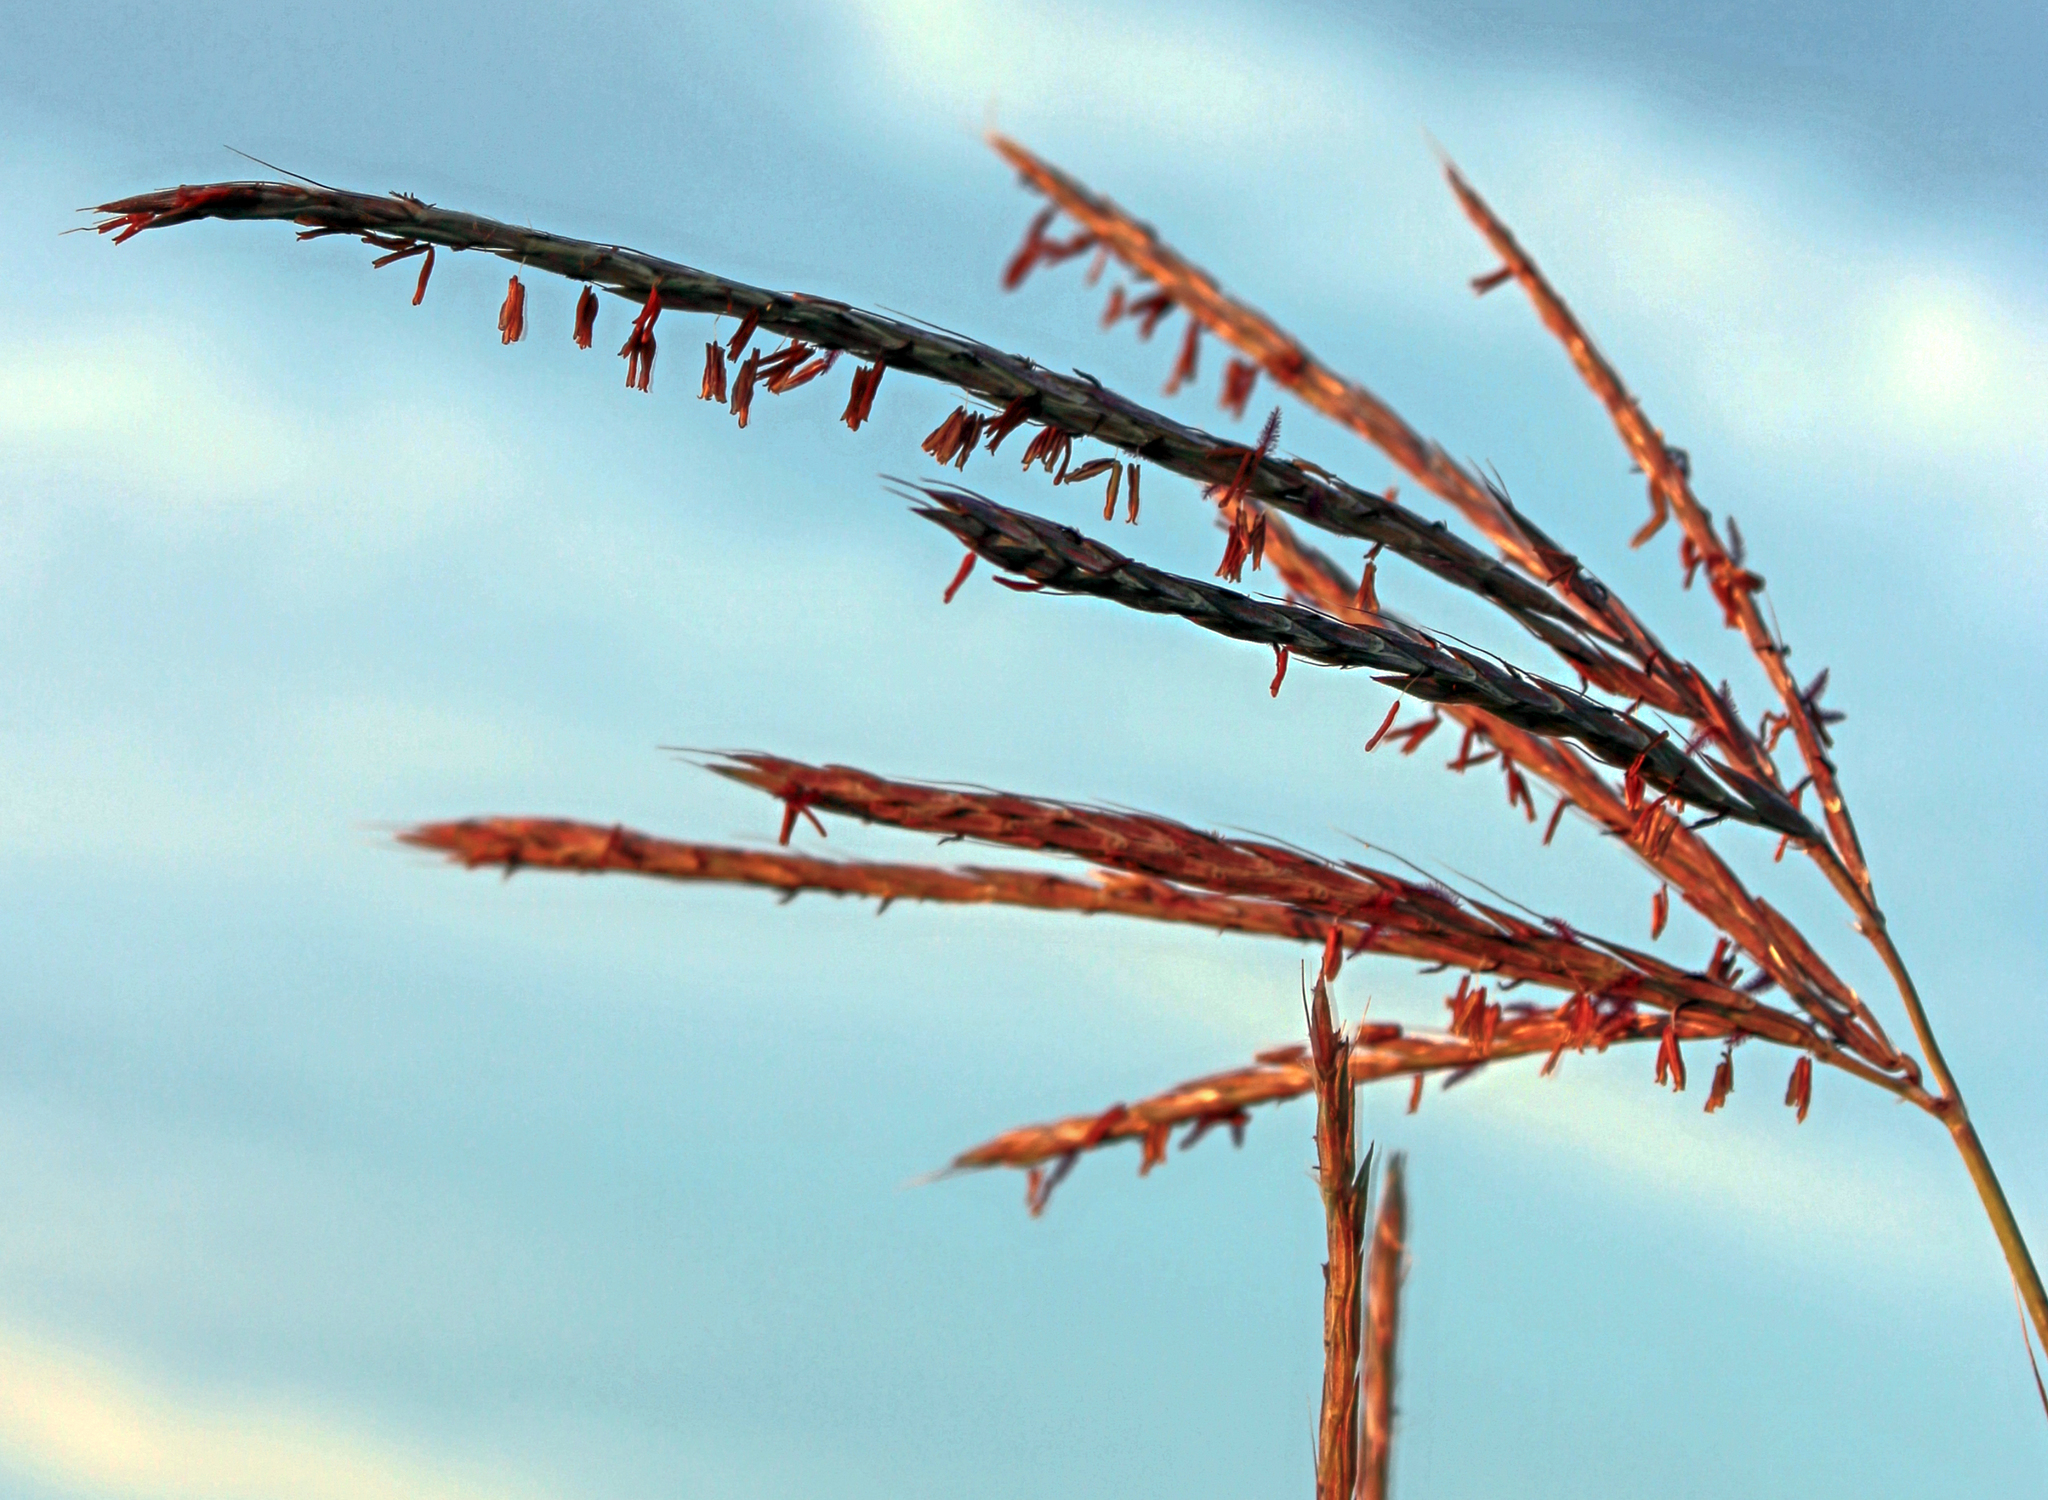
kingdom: Plantae
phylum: Tracheophyta
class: Liliopsida
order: Poales
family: Poaceae
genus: Andropogon
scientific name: Andropogon gerardi
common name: Big bluestem
